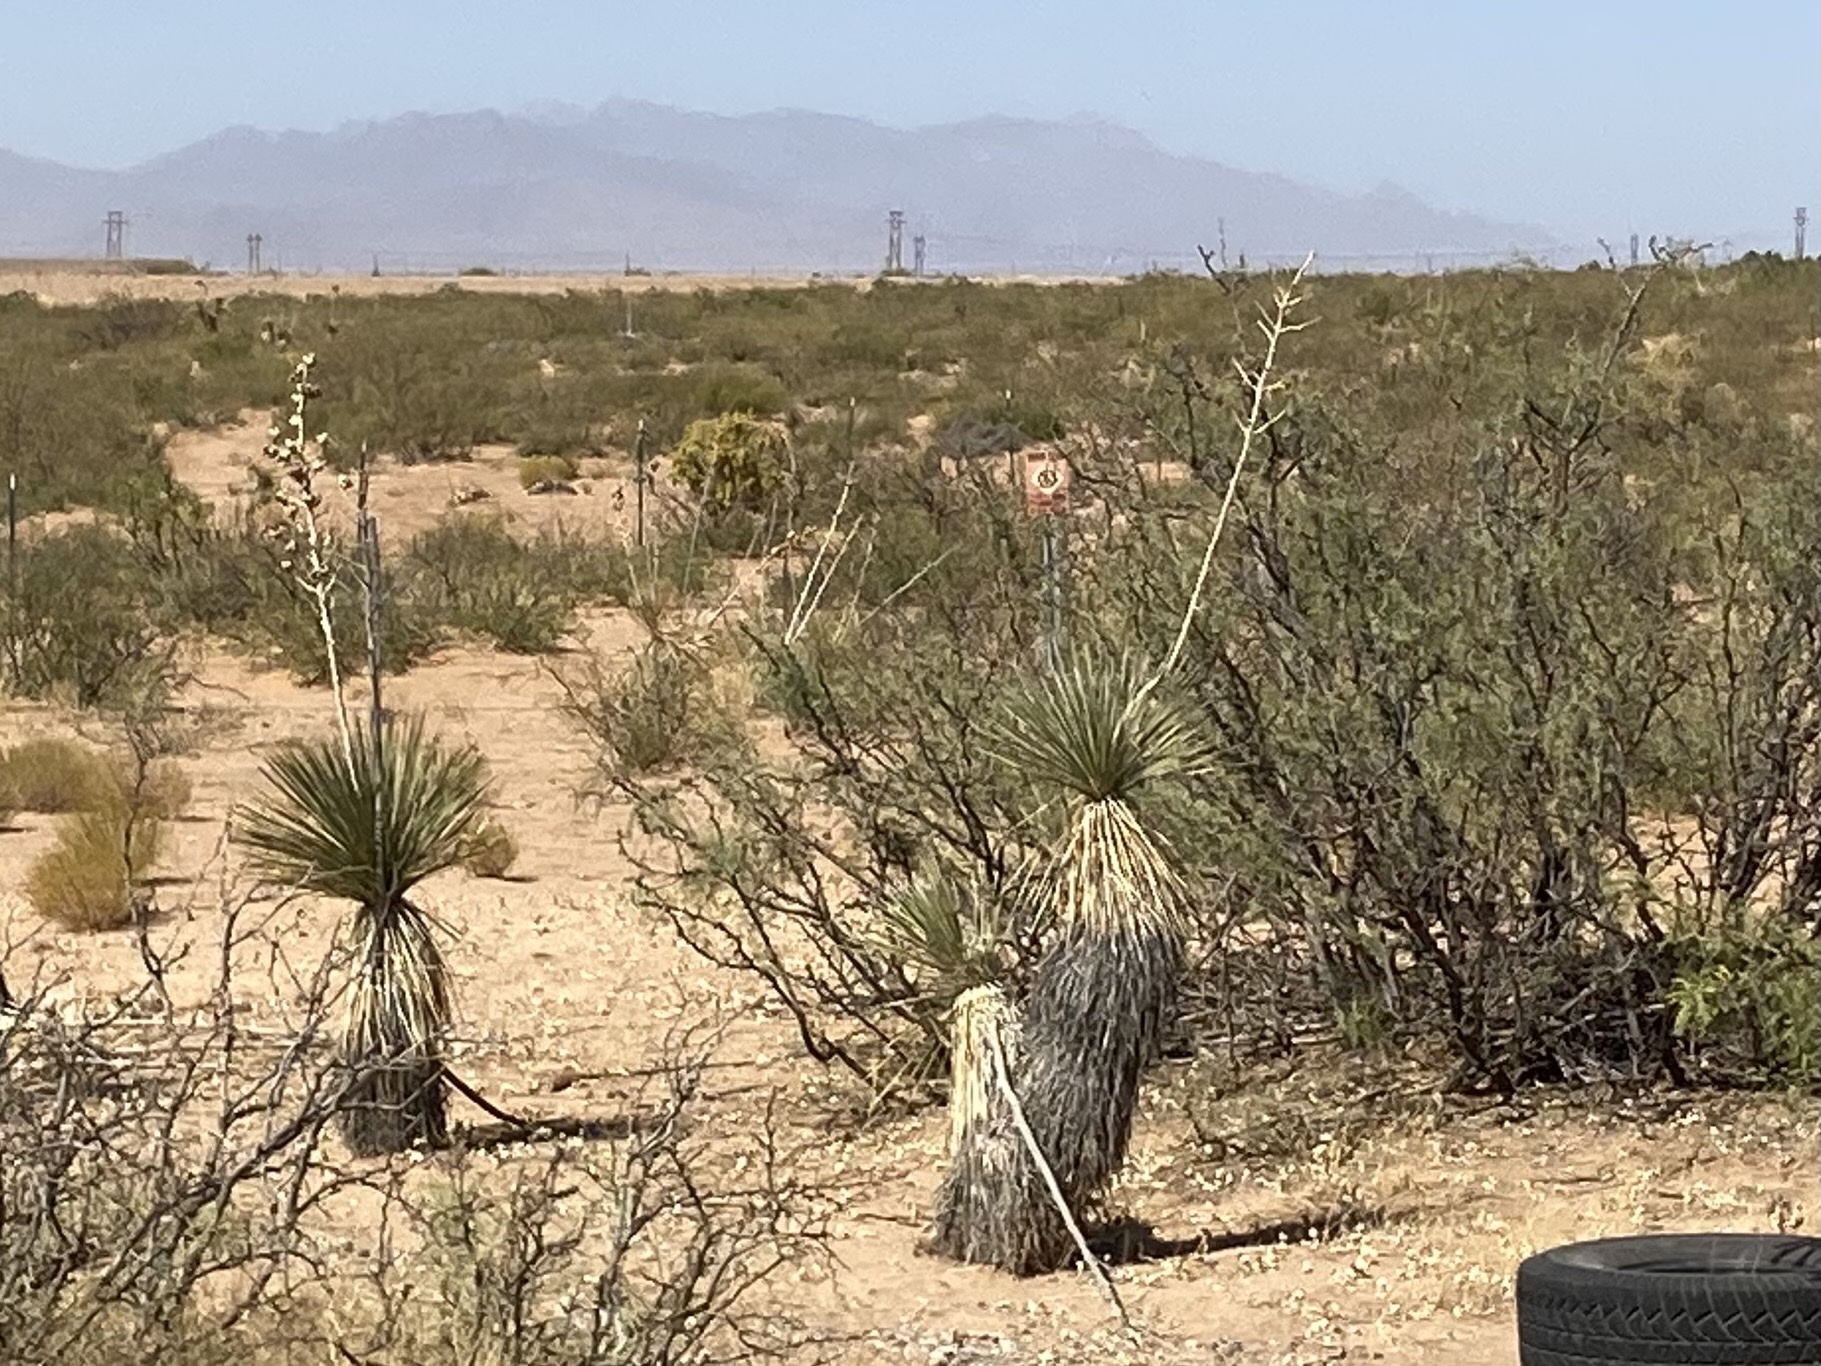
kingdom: Plantae
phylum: Tracheophyta
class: Liliopsida
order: Asparagales
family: Asparagaceae
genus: Yucca
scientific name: Yucca elata
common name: Palmella
